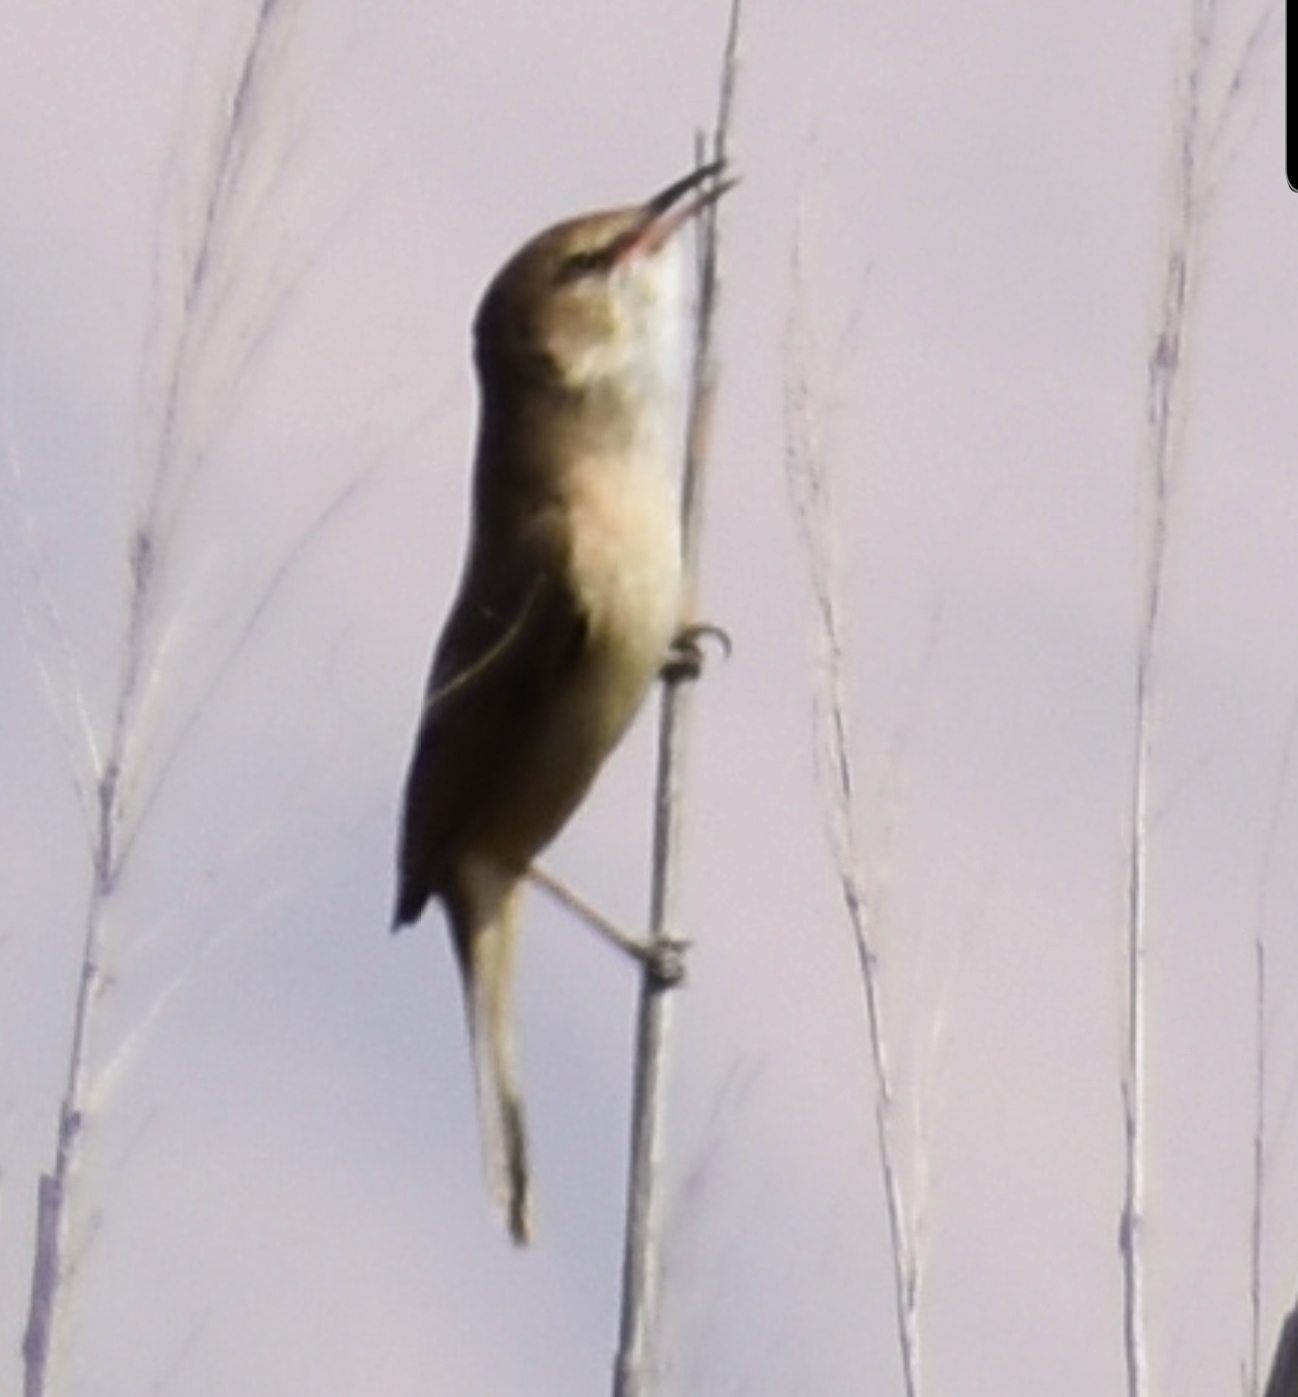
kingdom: Animalia
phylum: Chordata
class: Aves
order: Passeriformes
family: Acrocephalidae
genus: Acrocephalus
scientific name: Acrocephalus stentoreus
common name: Clamorous reed warbler
